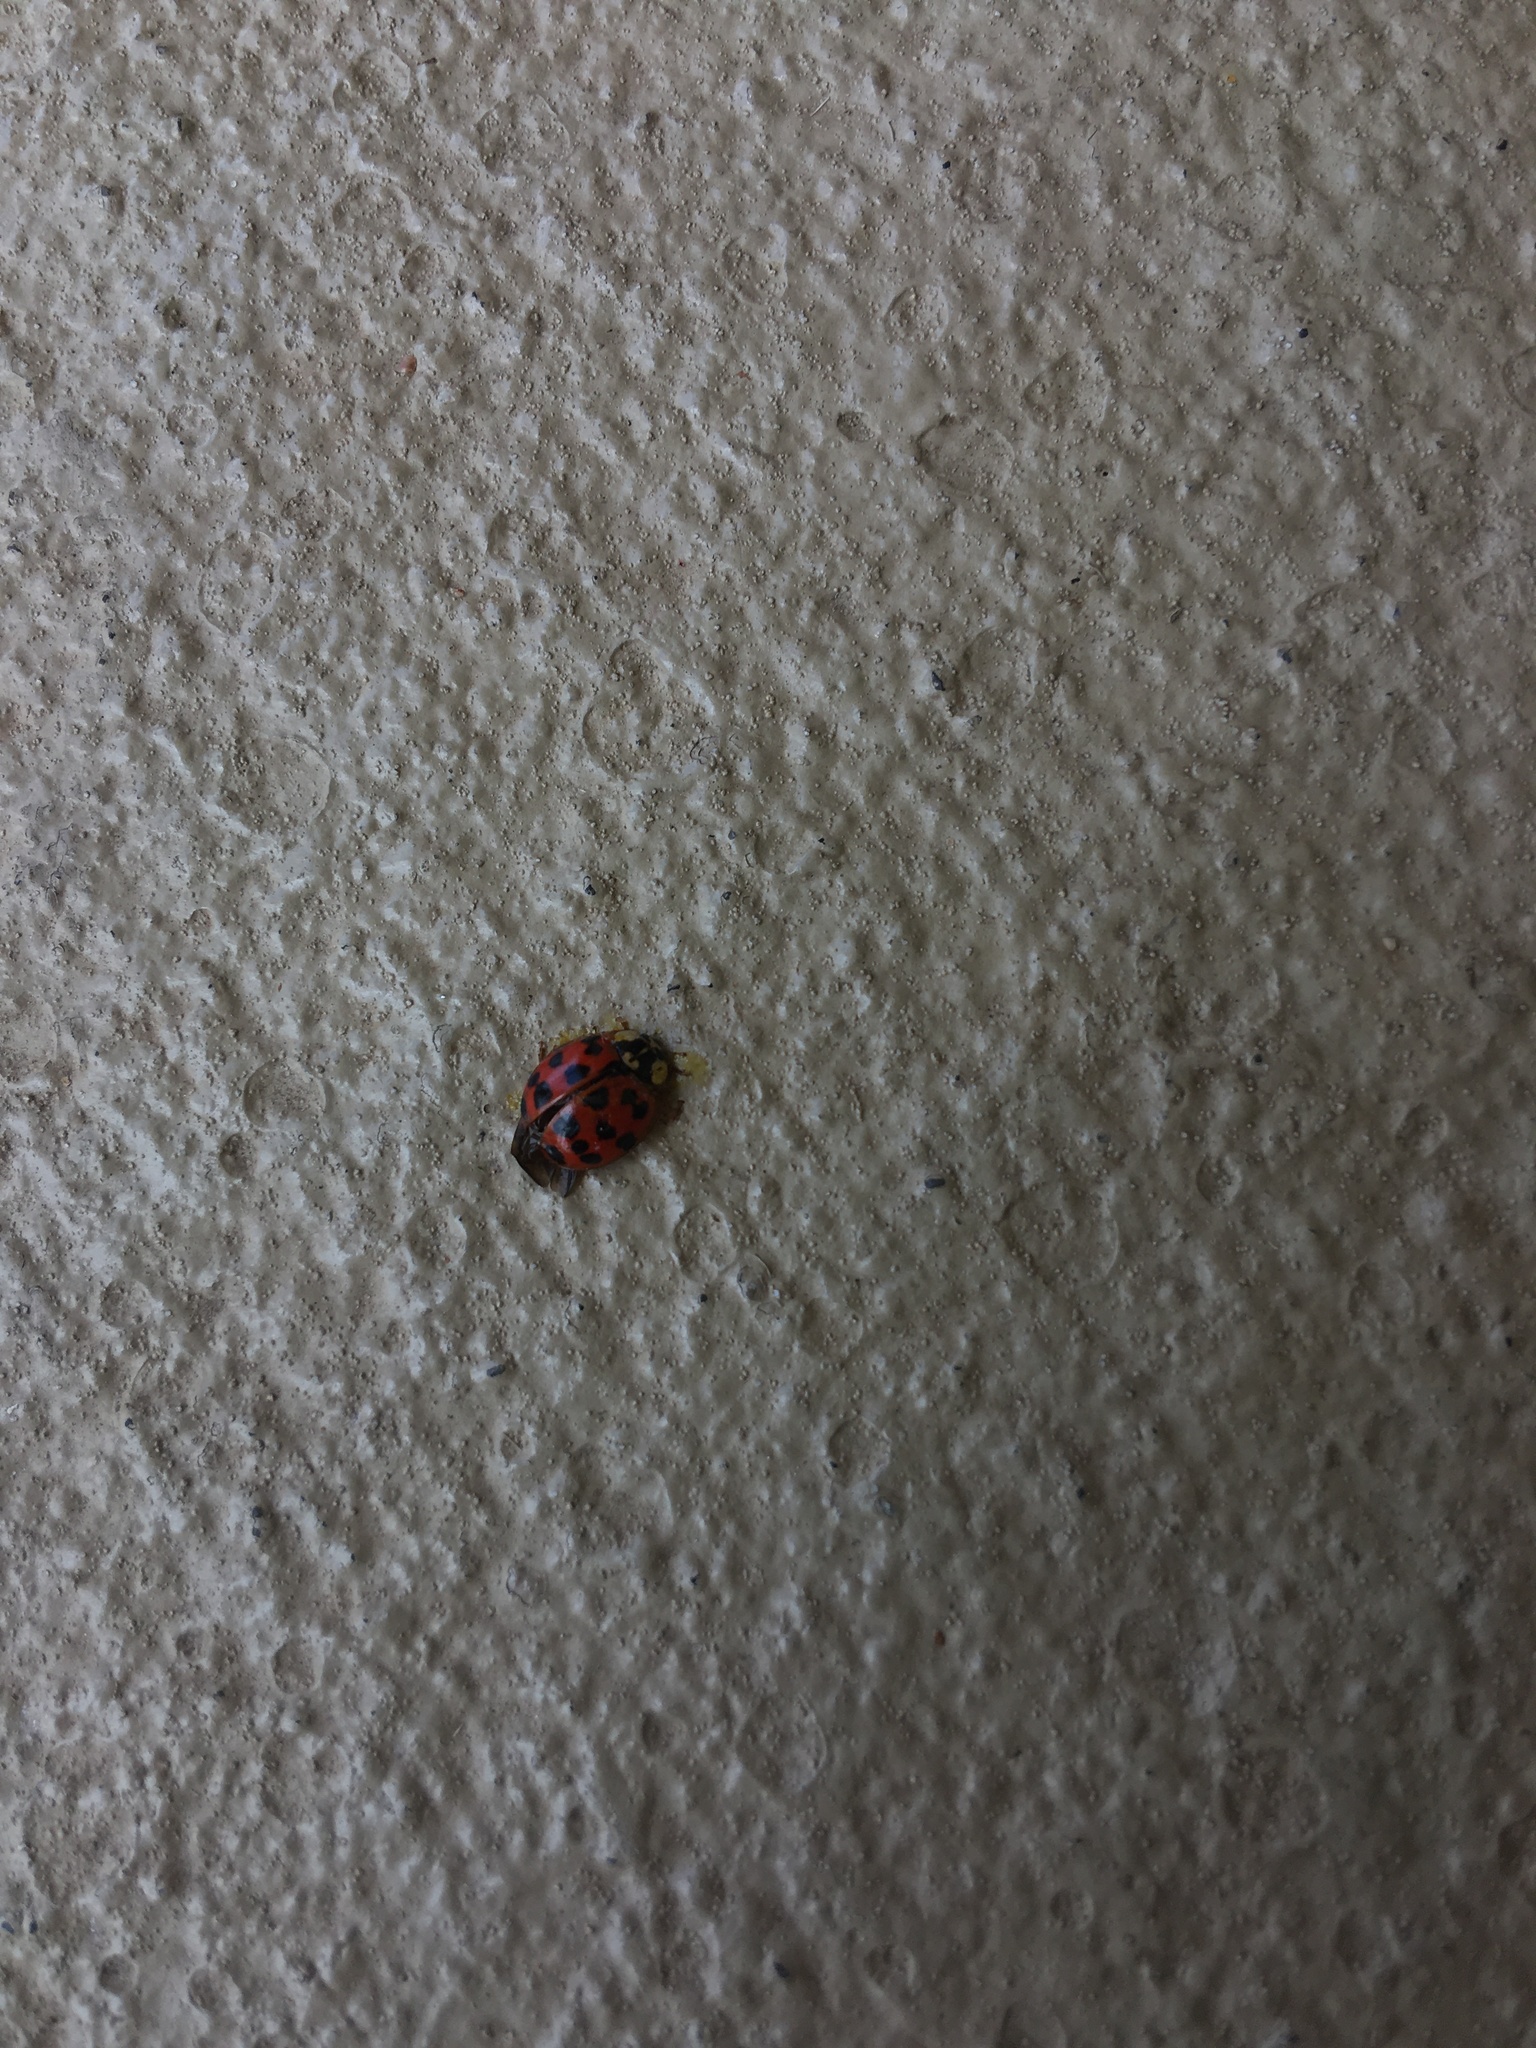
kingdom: Animalia
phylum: Arthropoda
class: Insecta
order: Coleoptera
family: Coccinellidae
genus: Harmonia
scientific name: Harmonia axyridis
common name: Harlequin ladybird
